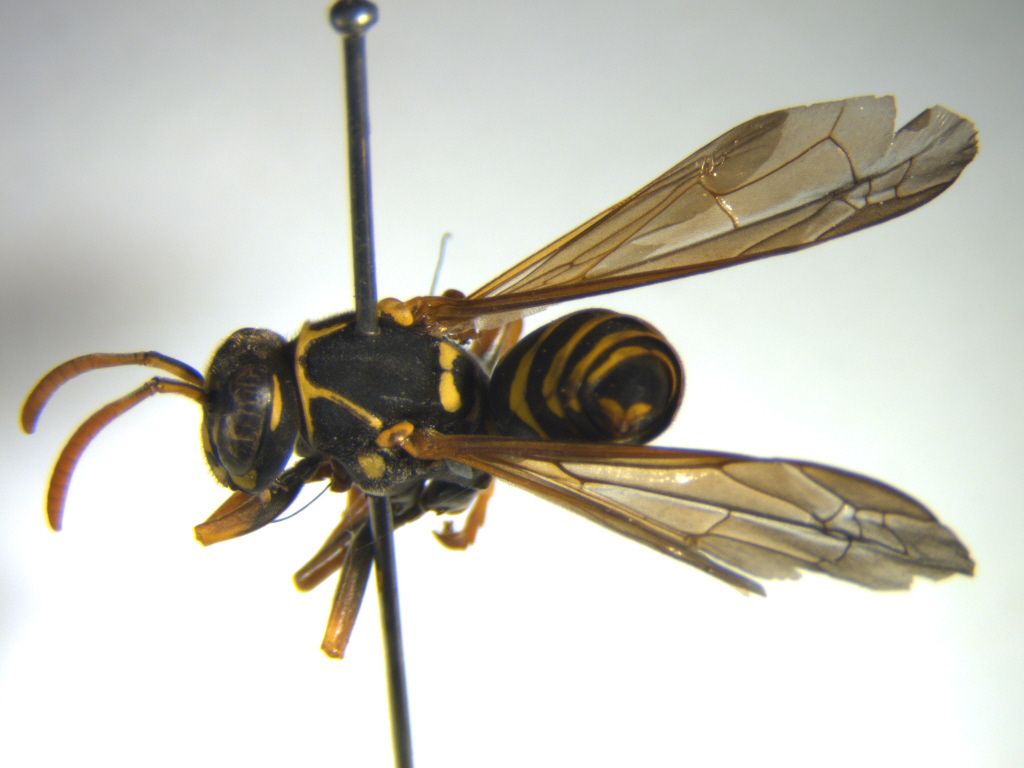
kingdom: Animalia
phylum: Arthropoda
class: Insecta
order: Hymenoptera
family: Eumenidae
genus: Polistes
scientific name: Polistes chinensis
